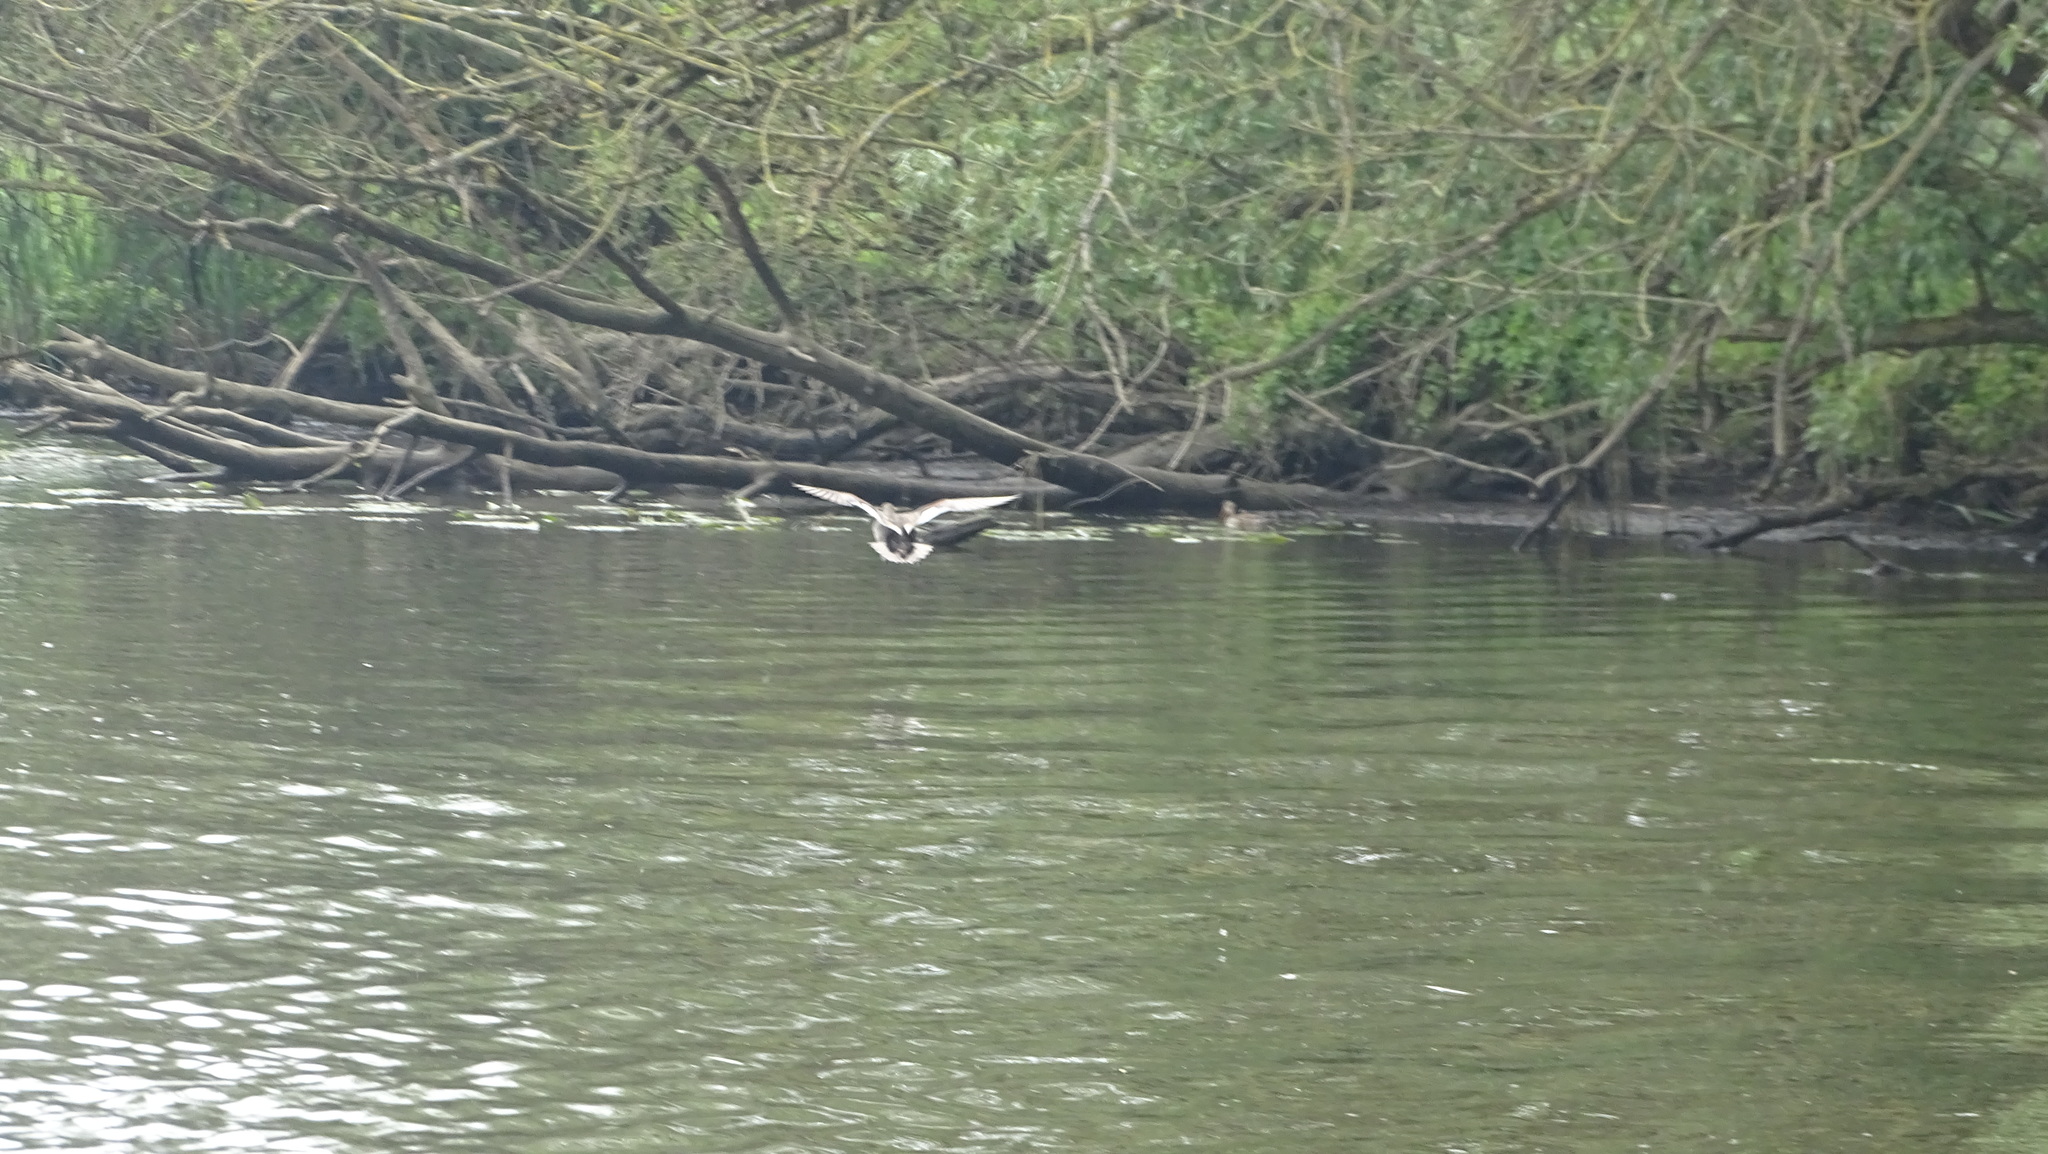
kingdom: Animalia
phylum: Chordata
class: Aves
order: Anseriformes
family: Anatidae
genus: Mareca
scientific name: Mareca strepera
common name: Gadwall
